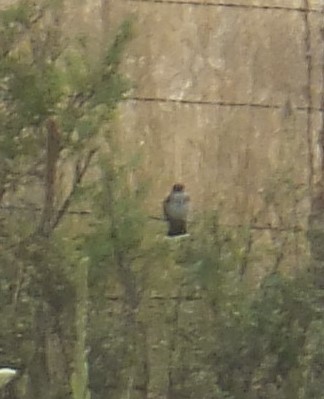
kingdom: Animalia
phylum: Chordata
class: Aves
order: Passeriformes
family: Tyrannidae
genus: Tyrannus
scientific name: Tyrannus tyrannus
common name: Eastern kingbird
